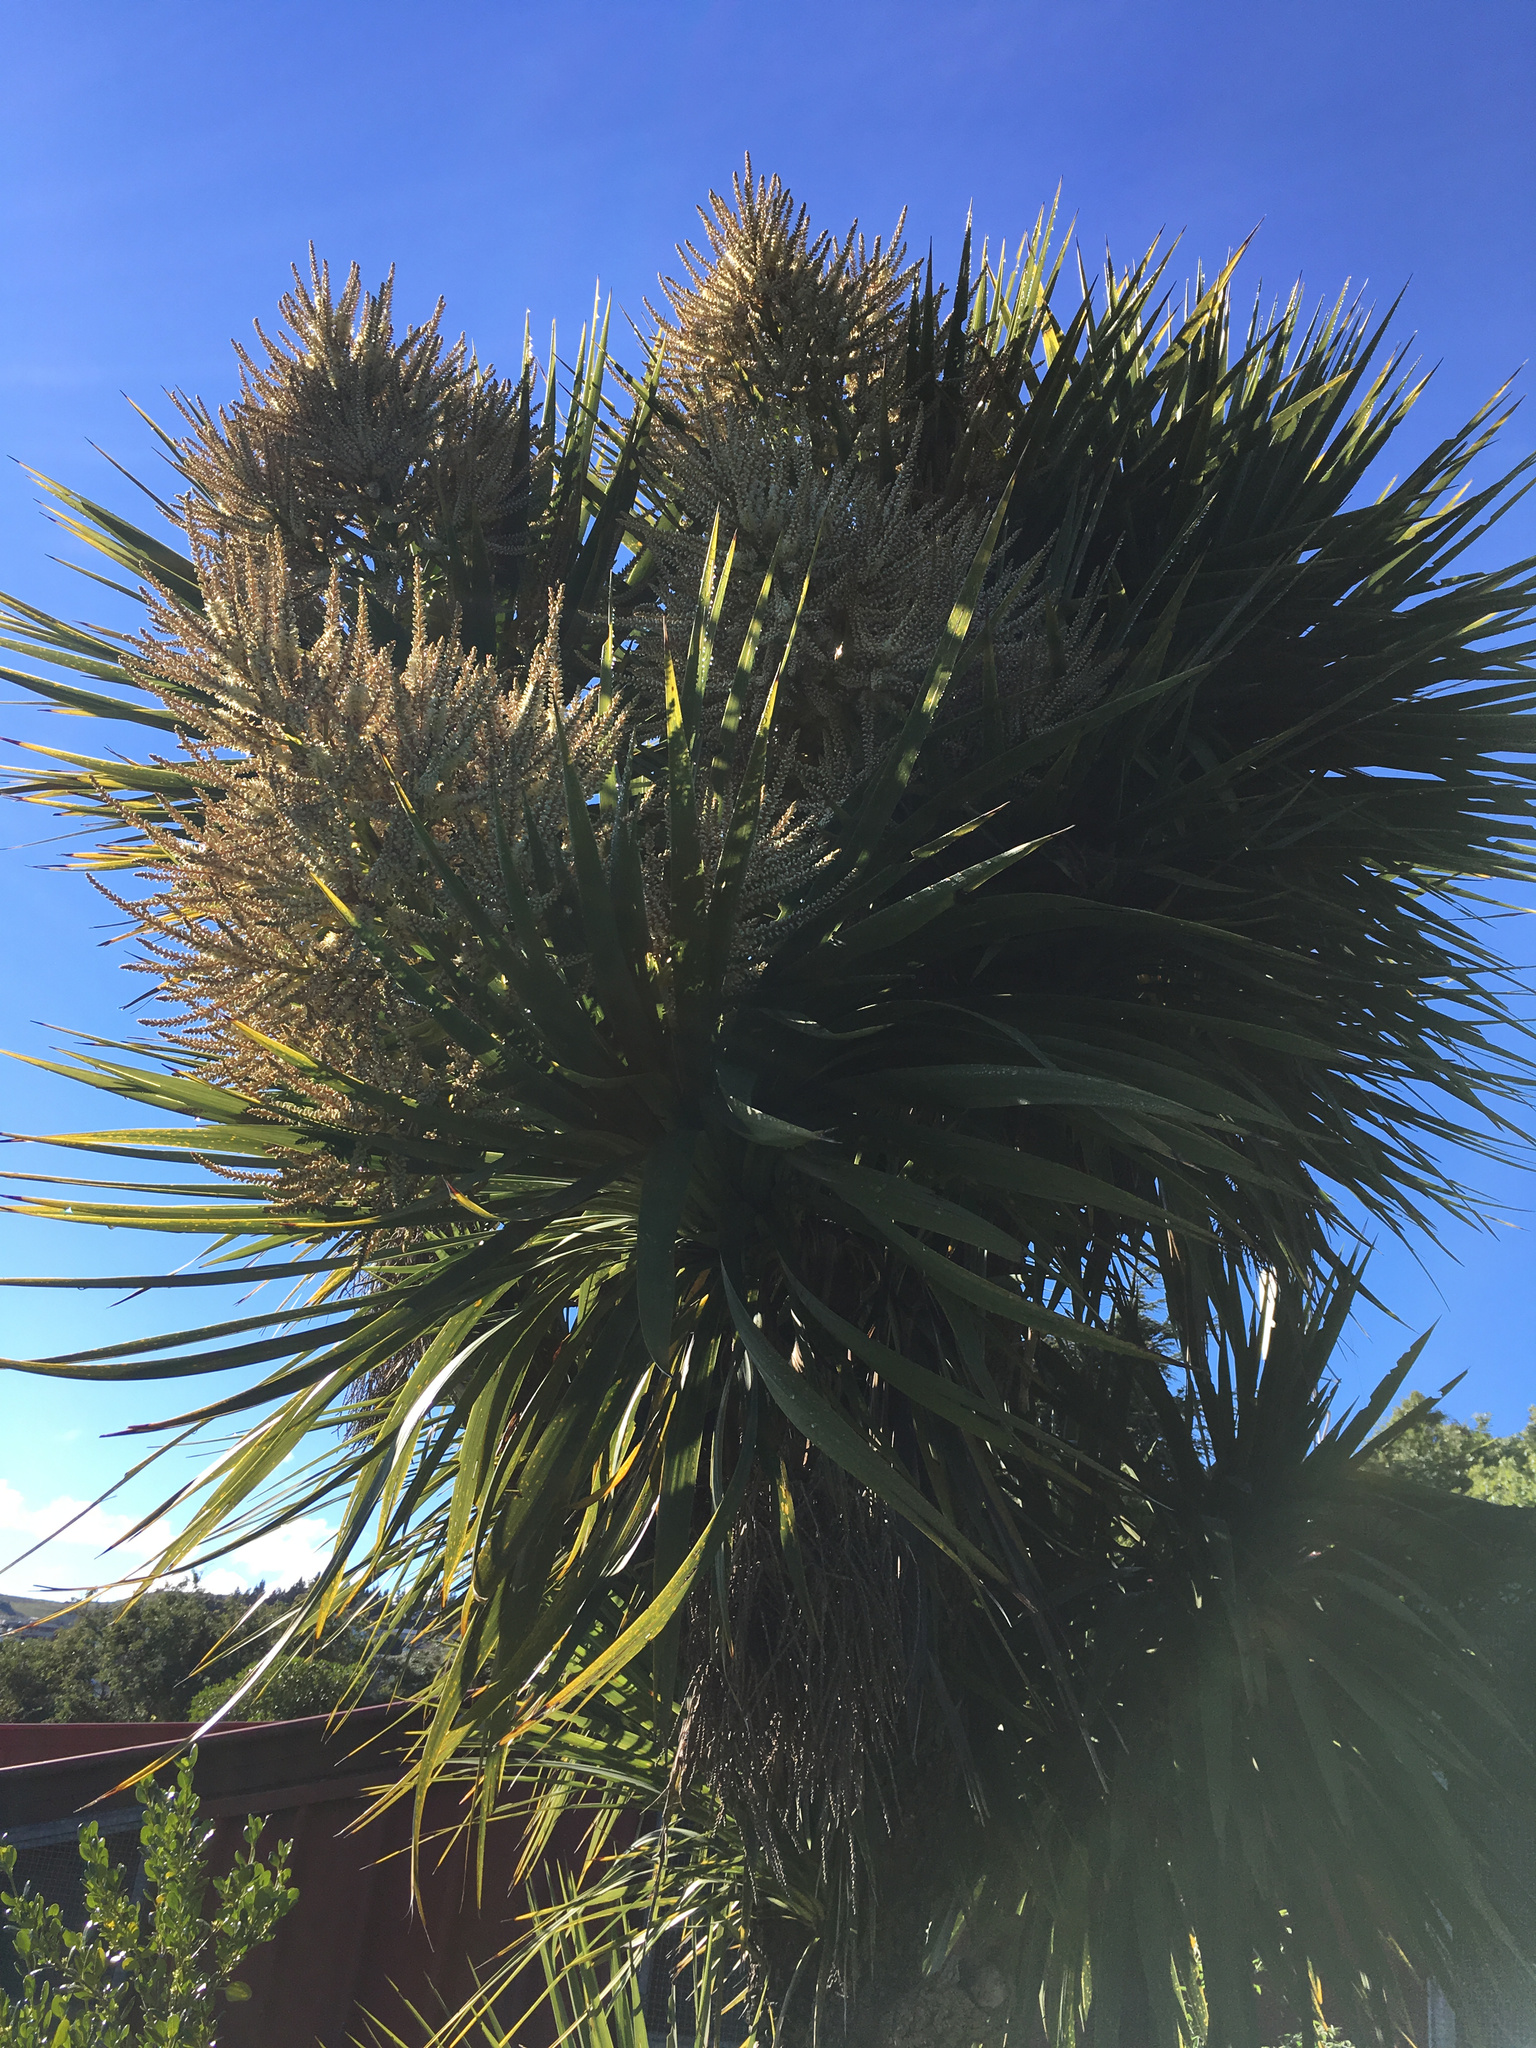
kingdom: Plantae
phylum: Tracheophyta
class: Liliopsida
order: Asparagales
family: Asparagaceae
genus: Cordyline
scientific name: Cordyline australis
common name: Cabbage-palm
